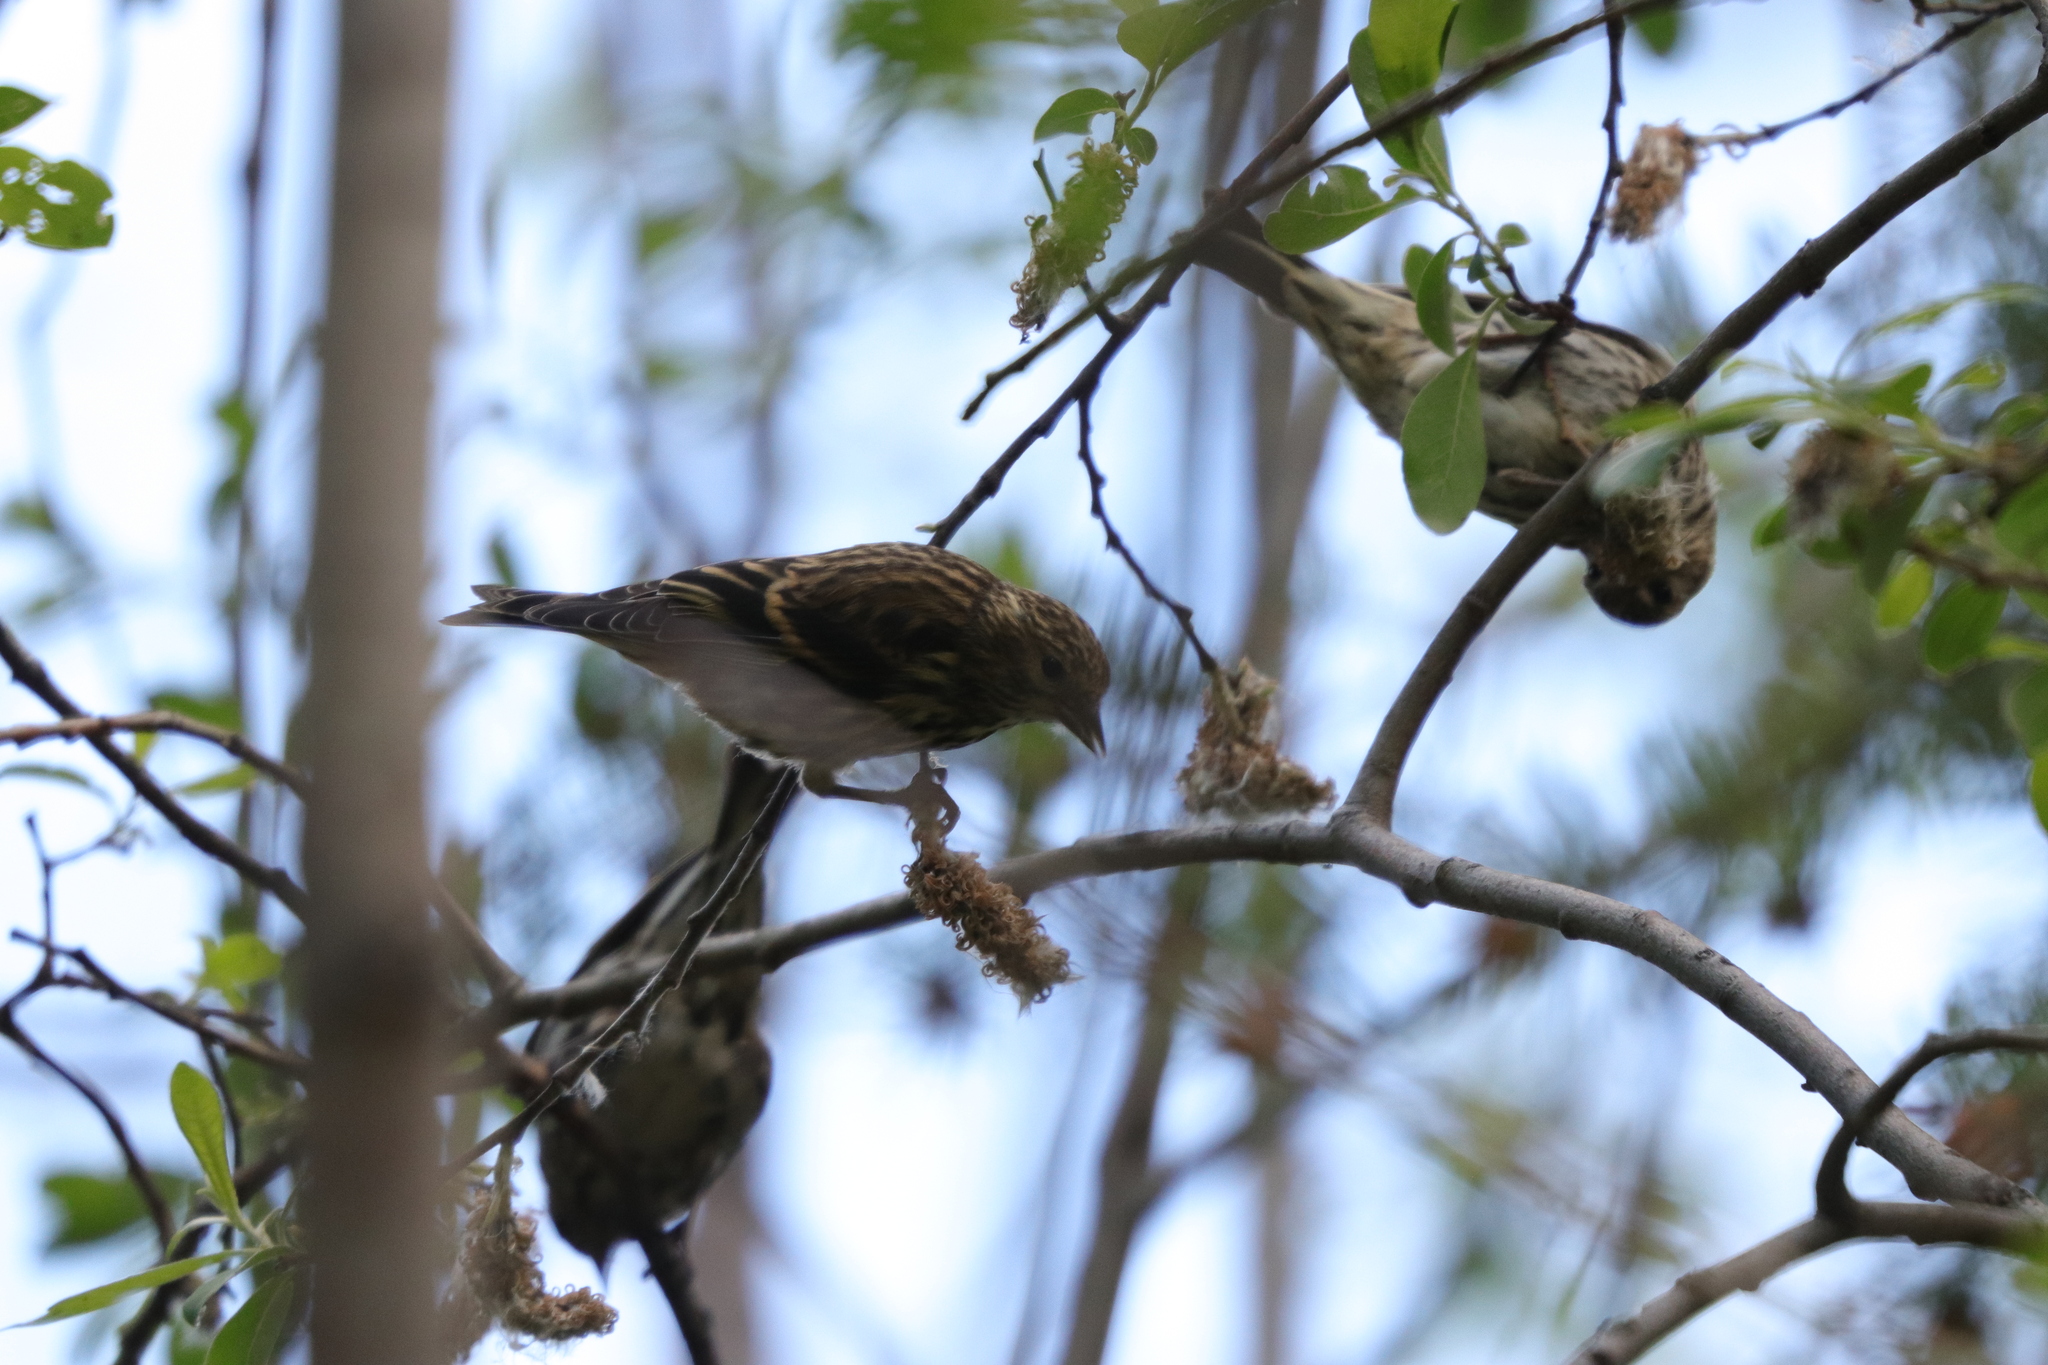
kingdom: Animalia
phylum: Chordata
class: Aves
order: Passeriformes
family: Fringillidae
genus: Spinus
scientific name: Spinus pinus
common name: Pine siskin
